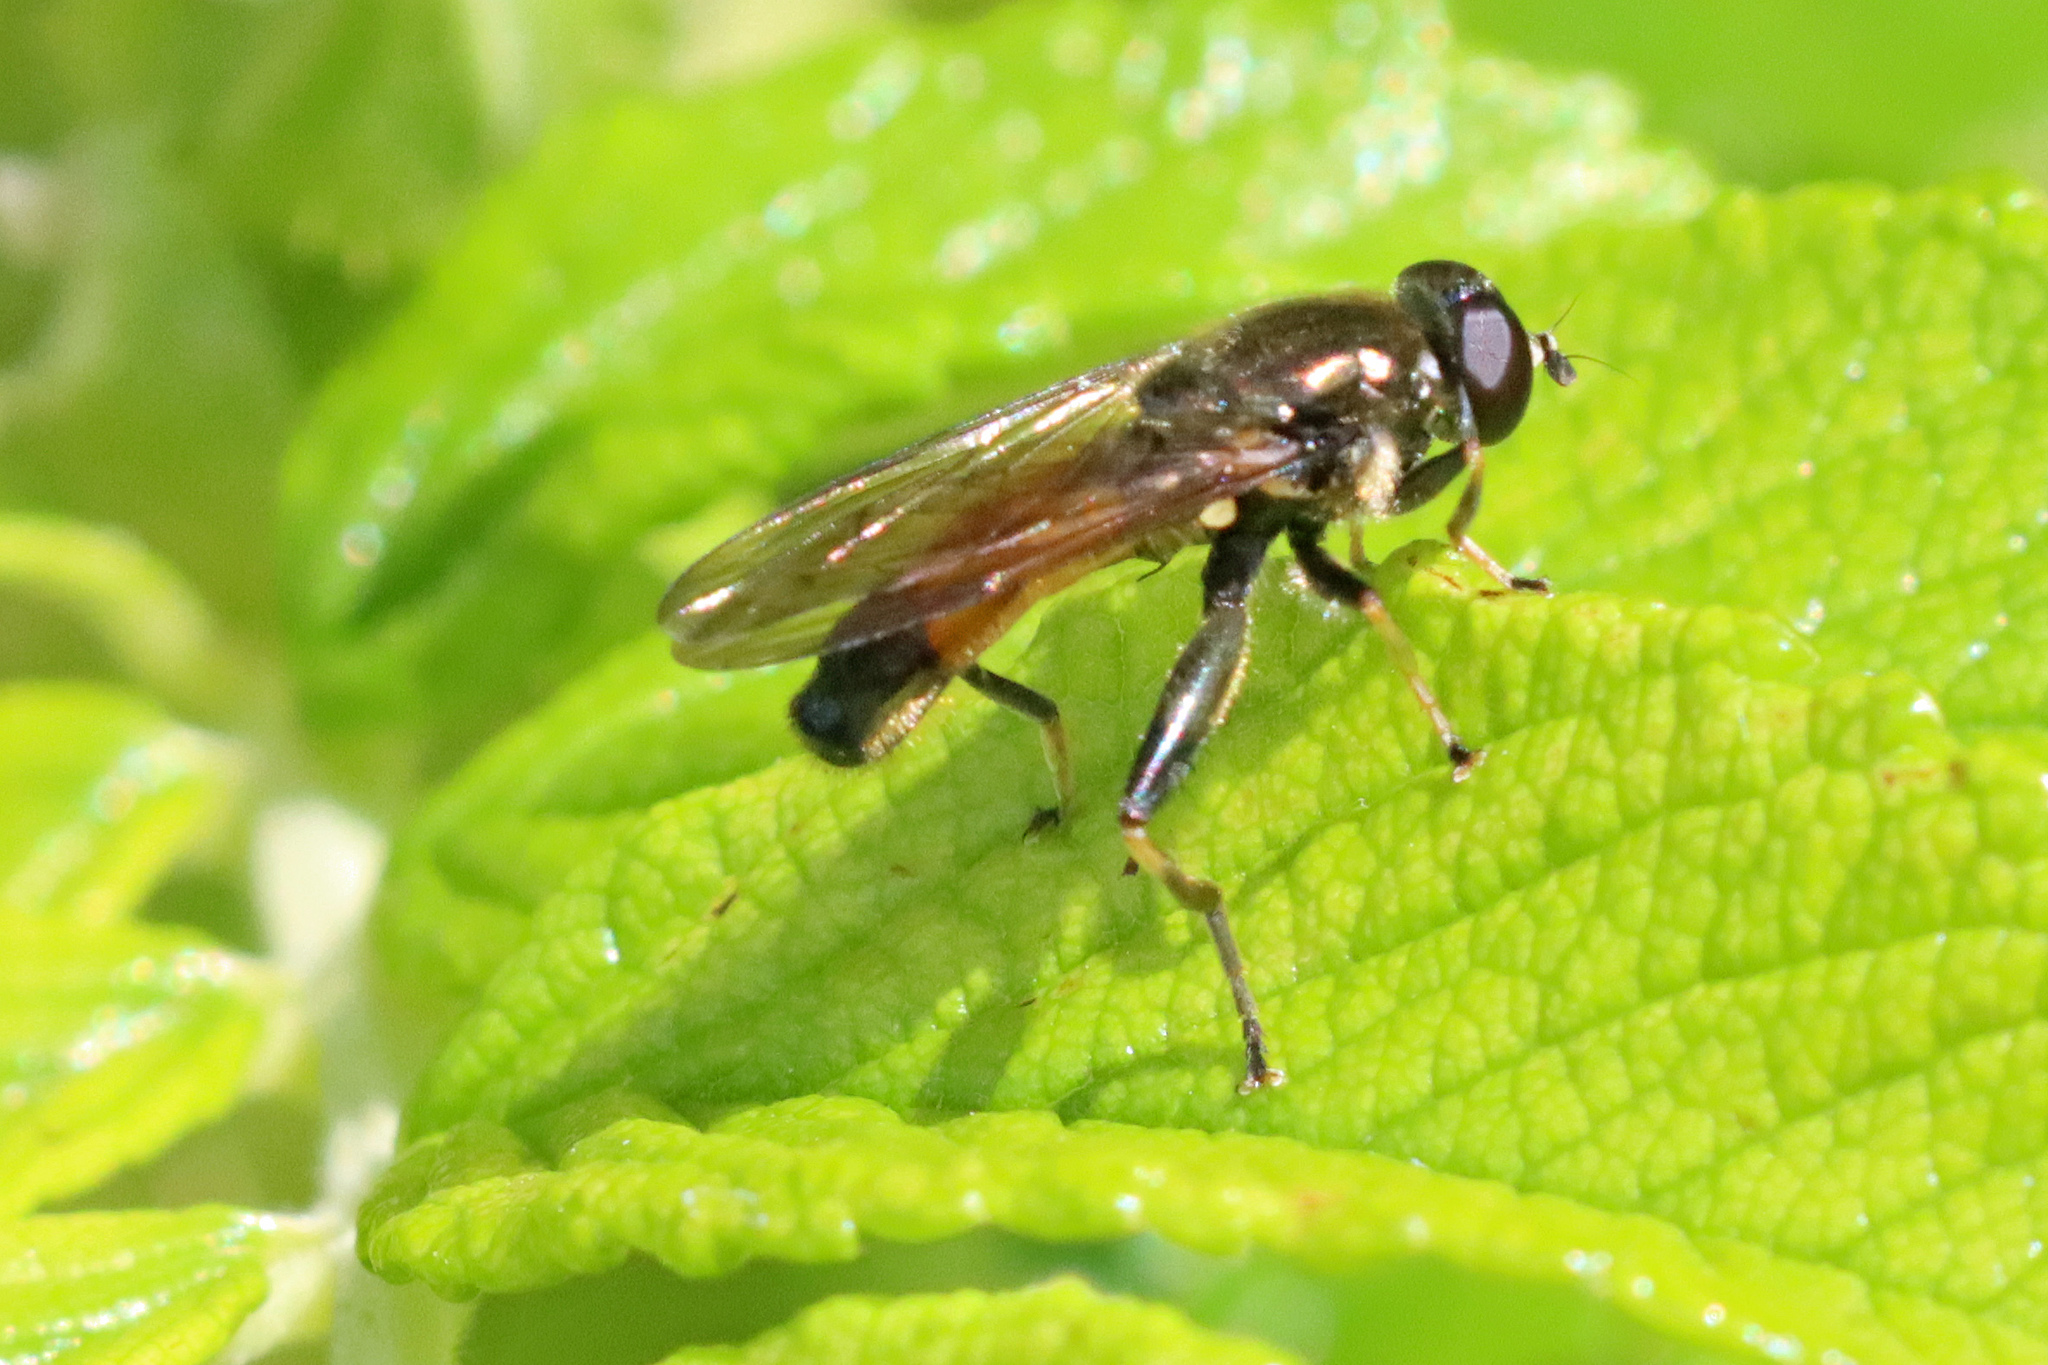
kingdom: Animalia
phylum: Arthropoda
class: Insecta
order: Diptera
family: Syrphidae
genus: Xylota
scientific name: Xylota segnis
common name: Brown-toed forest fly
